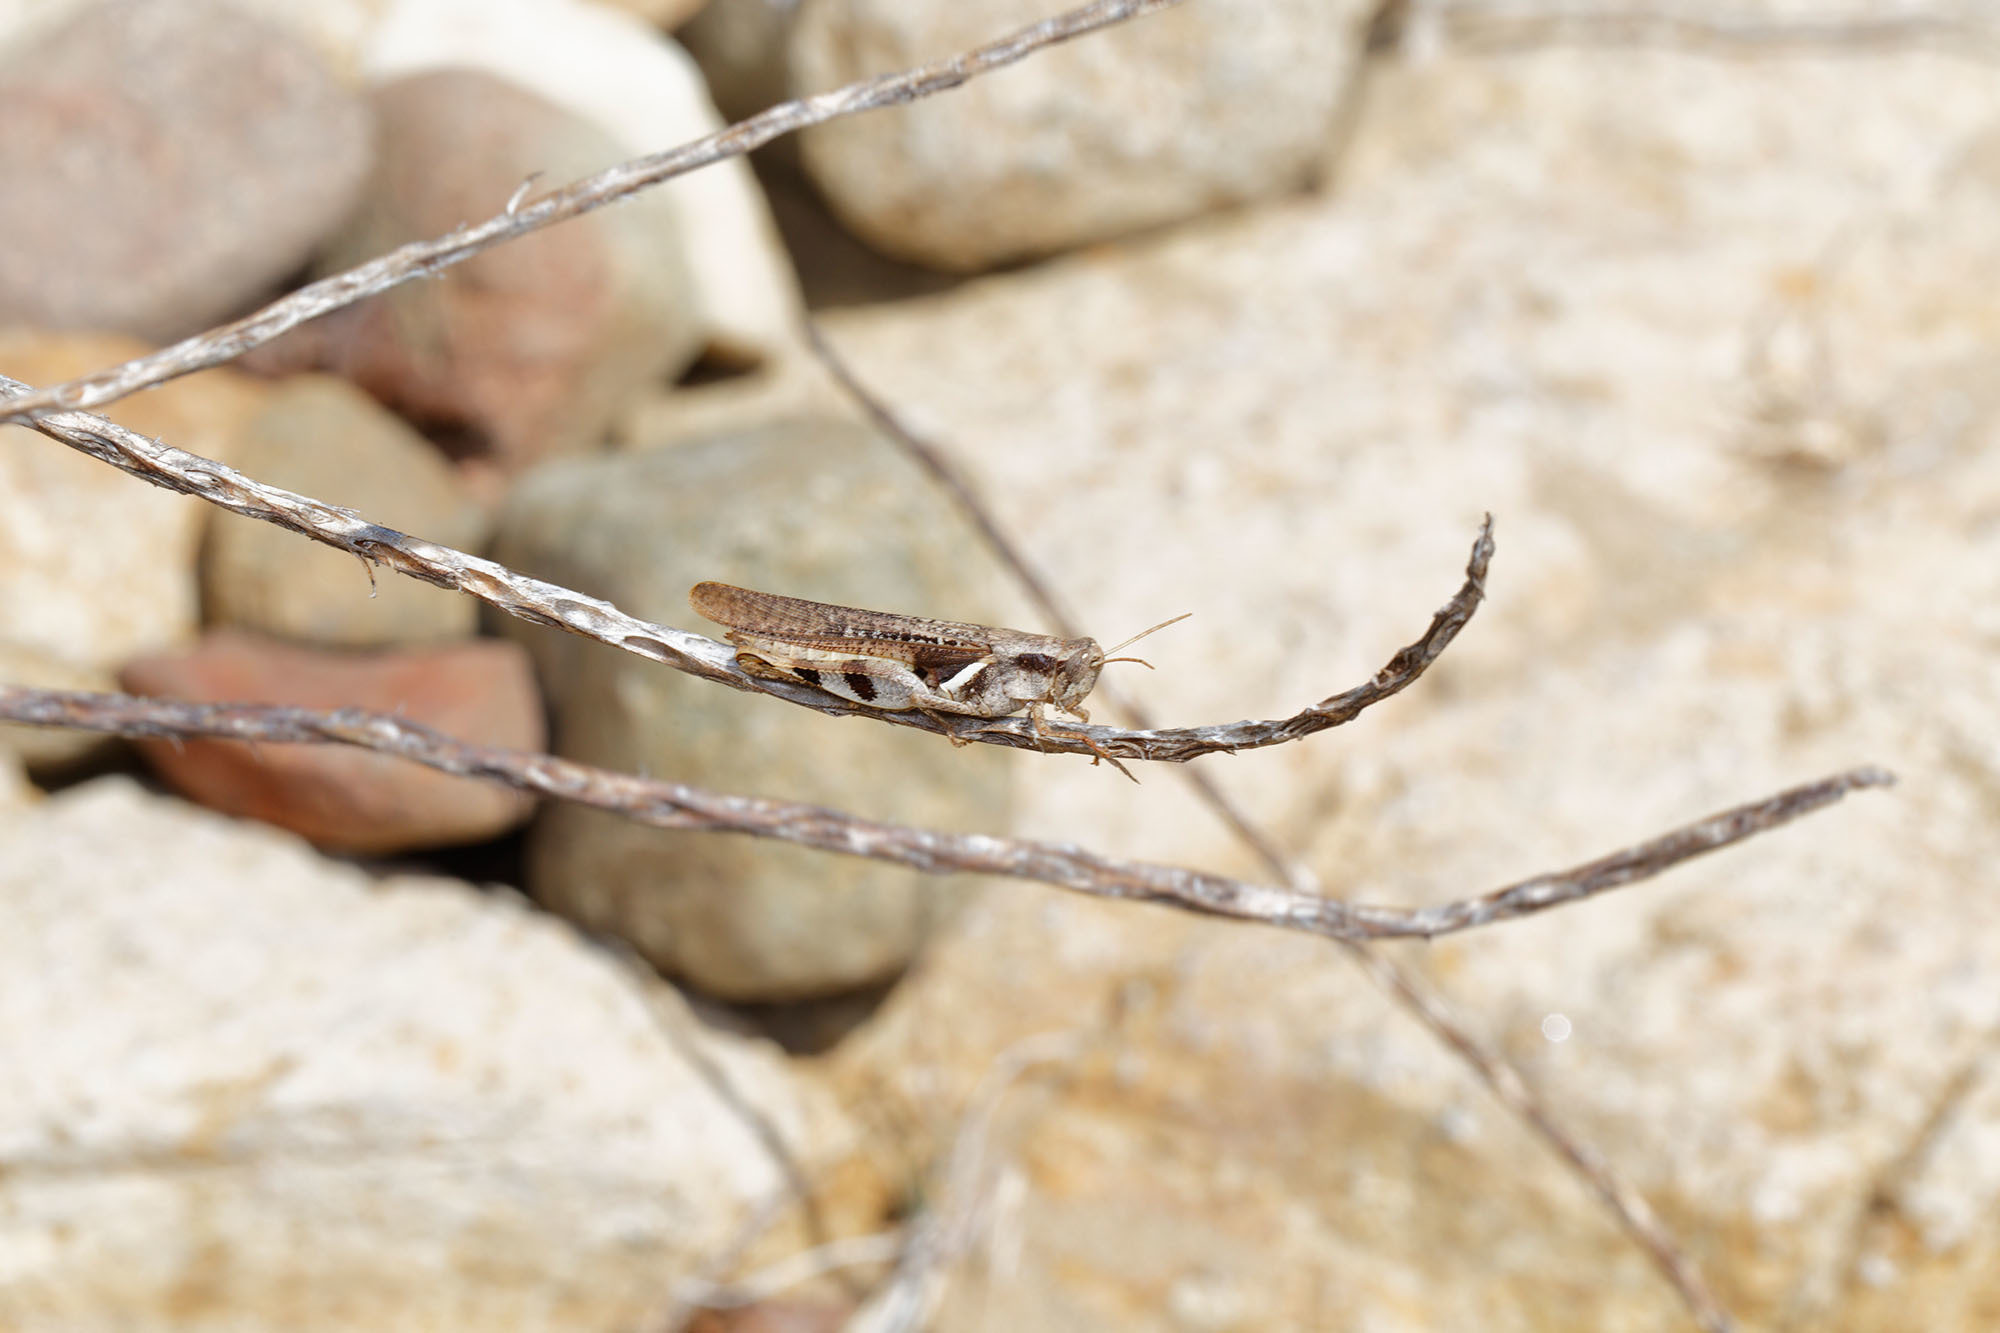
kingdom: Animalia
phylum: Arthropoda
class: Insecta
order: Orthoptera
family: Acrididae
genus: Stenocatantops
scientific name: Stenocatantops angustifrons
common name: Common tropical sharptail
